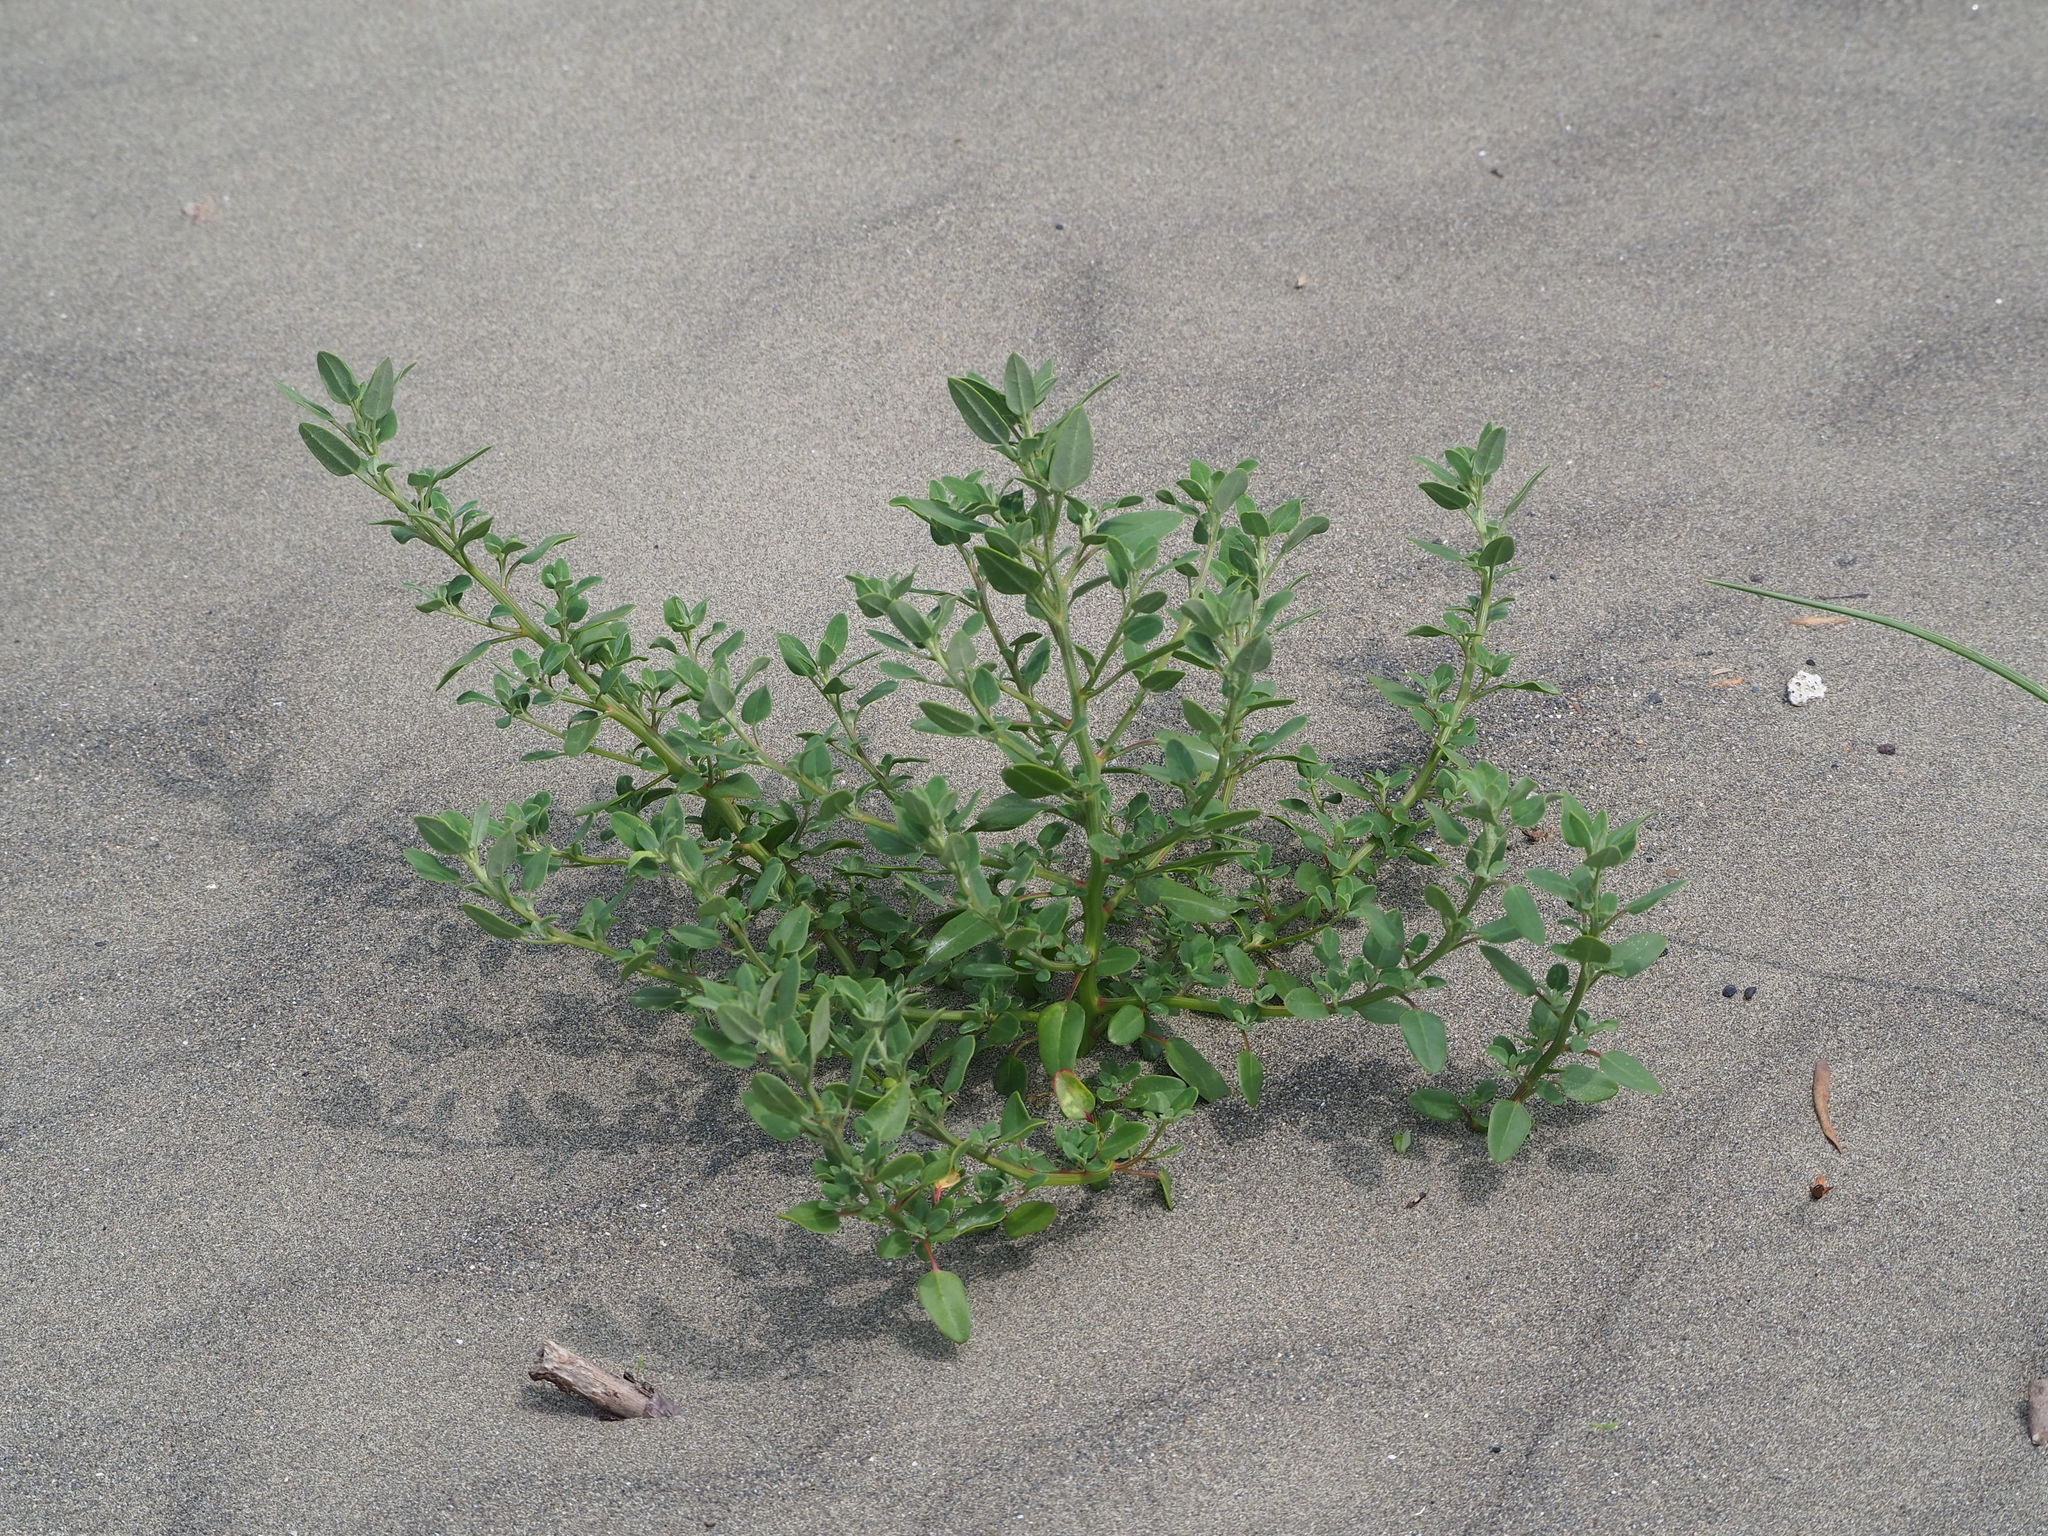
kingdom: Plantae
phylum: Tracheophyta
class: Magnoliopsida
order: Caryophyllales
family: Amaranthaceae
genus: Chenopodium
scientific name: Chenopodium acuminatum
